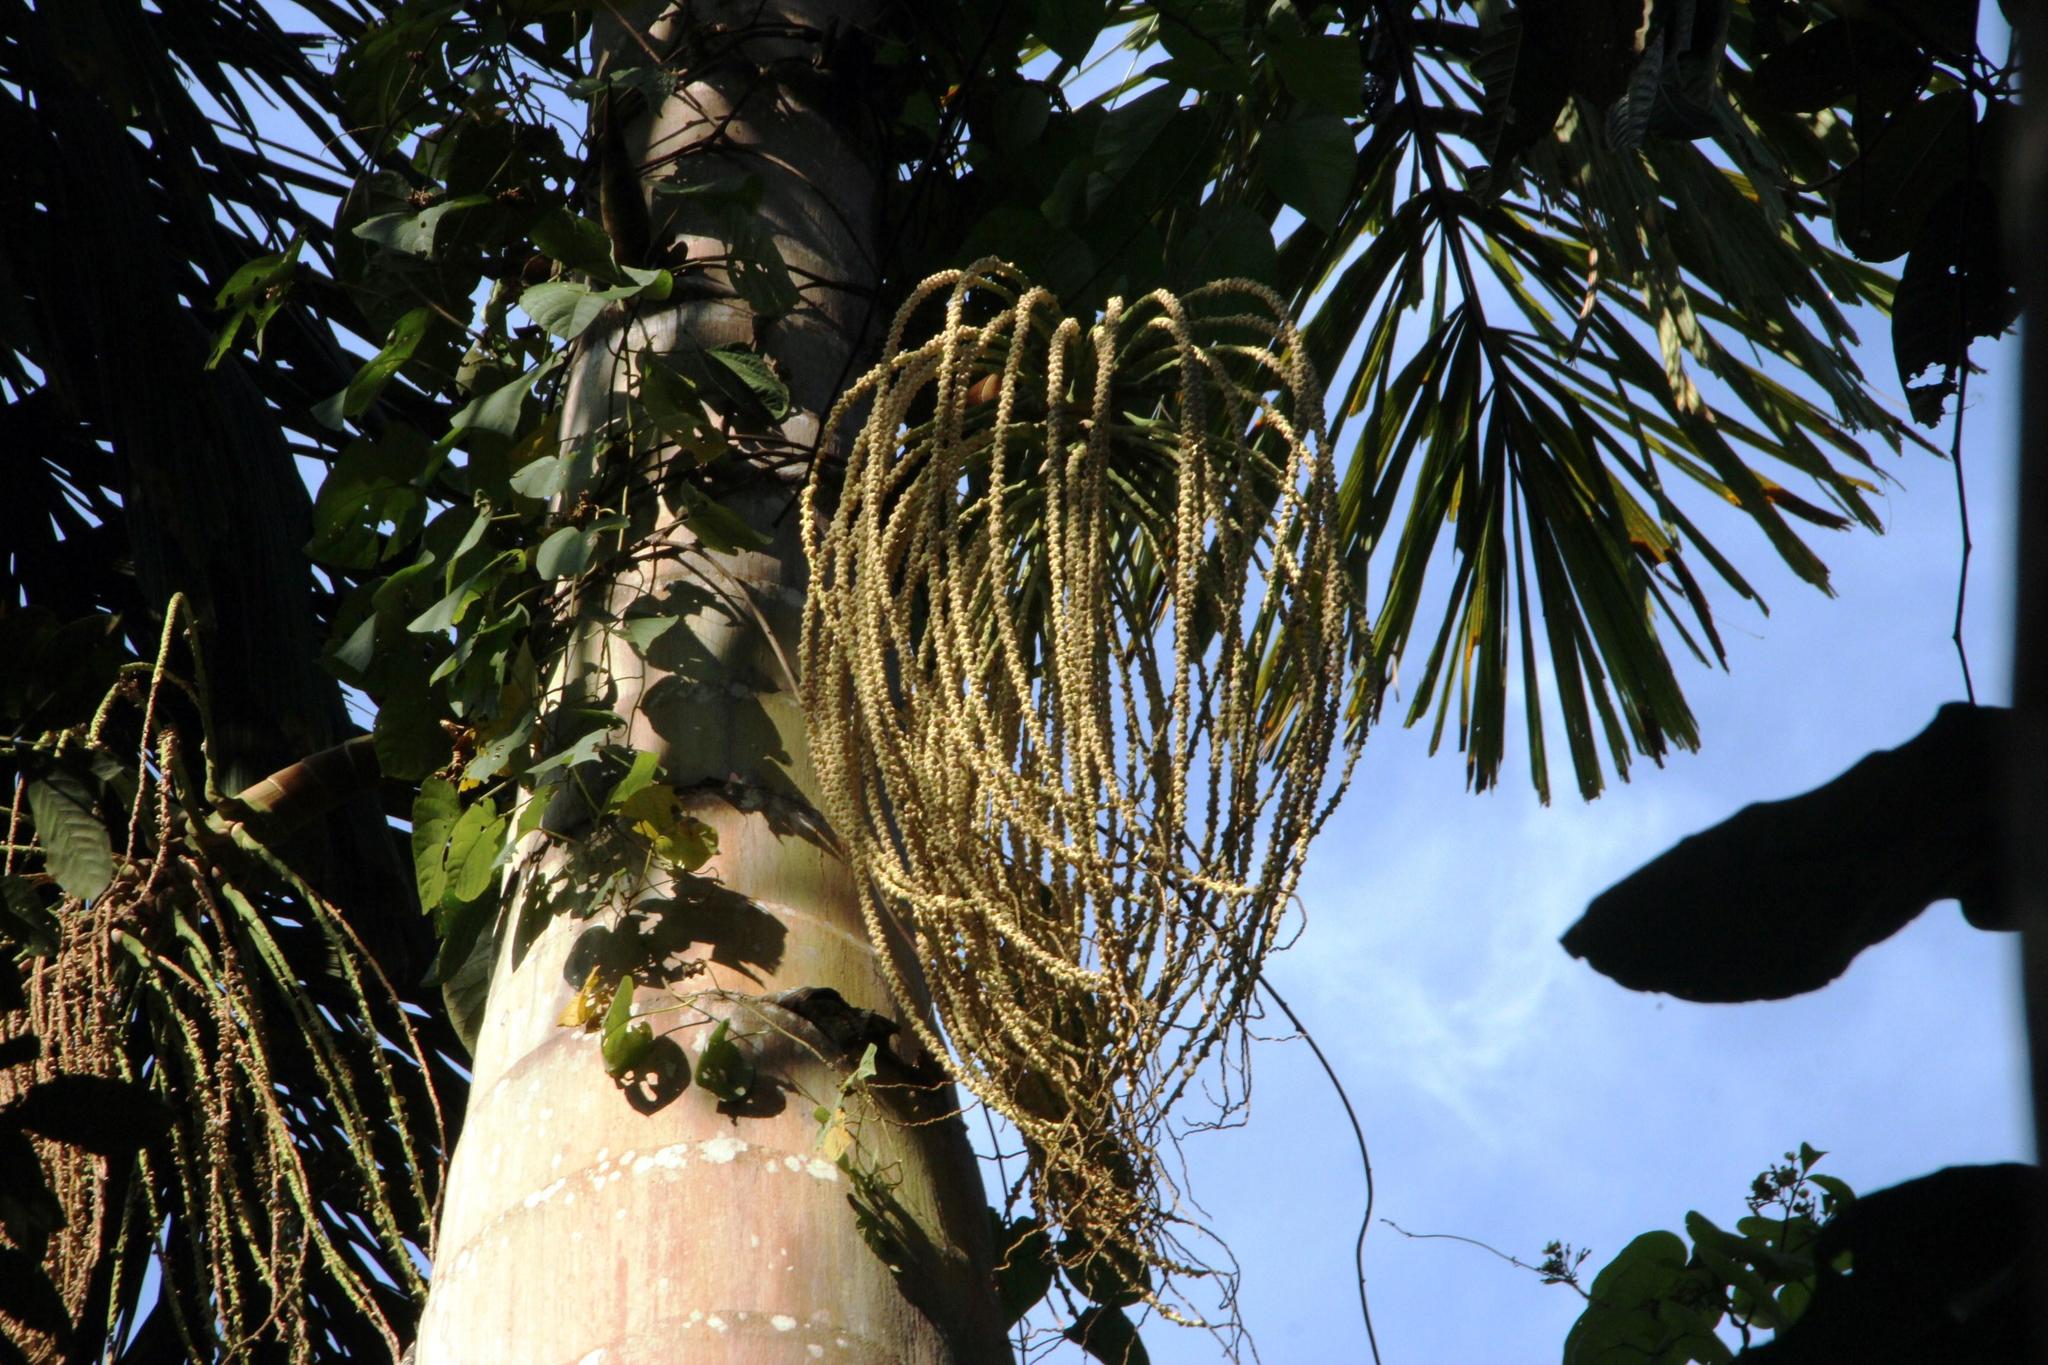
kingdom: Plantae
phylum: Tracheophyta
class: Liliopsida
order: Arecales
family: Arecaceae
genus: Iriartea
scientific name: Iriartea deltoidea
